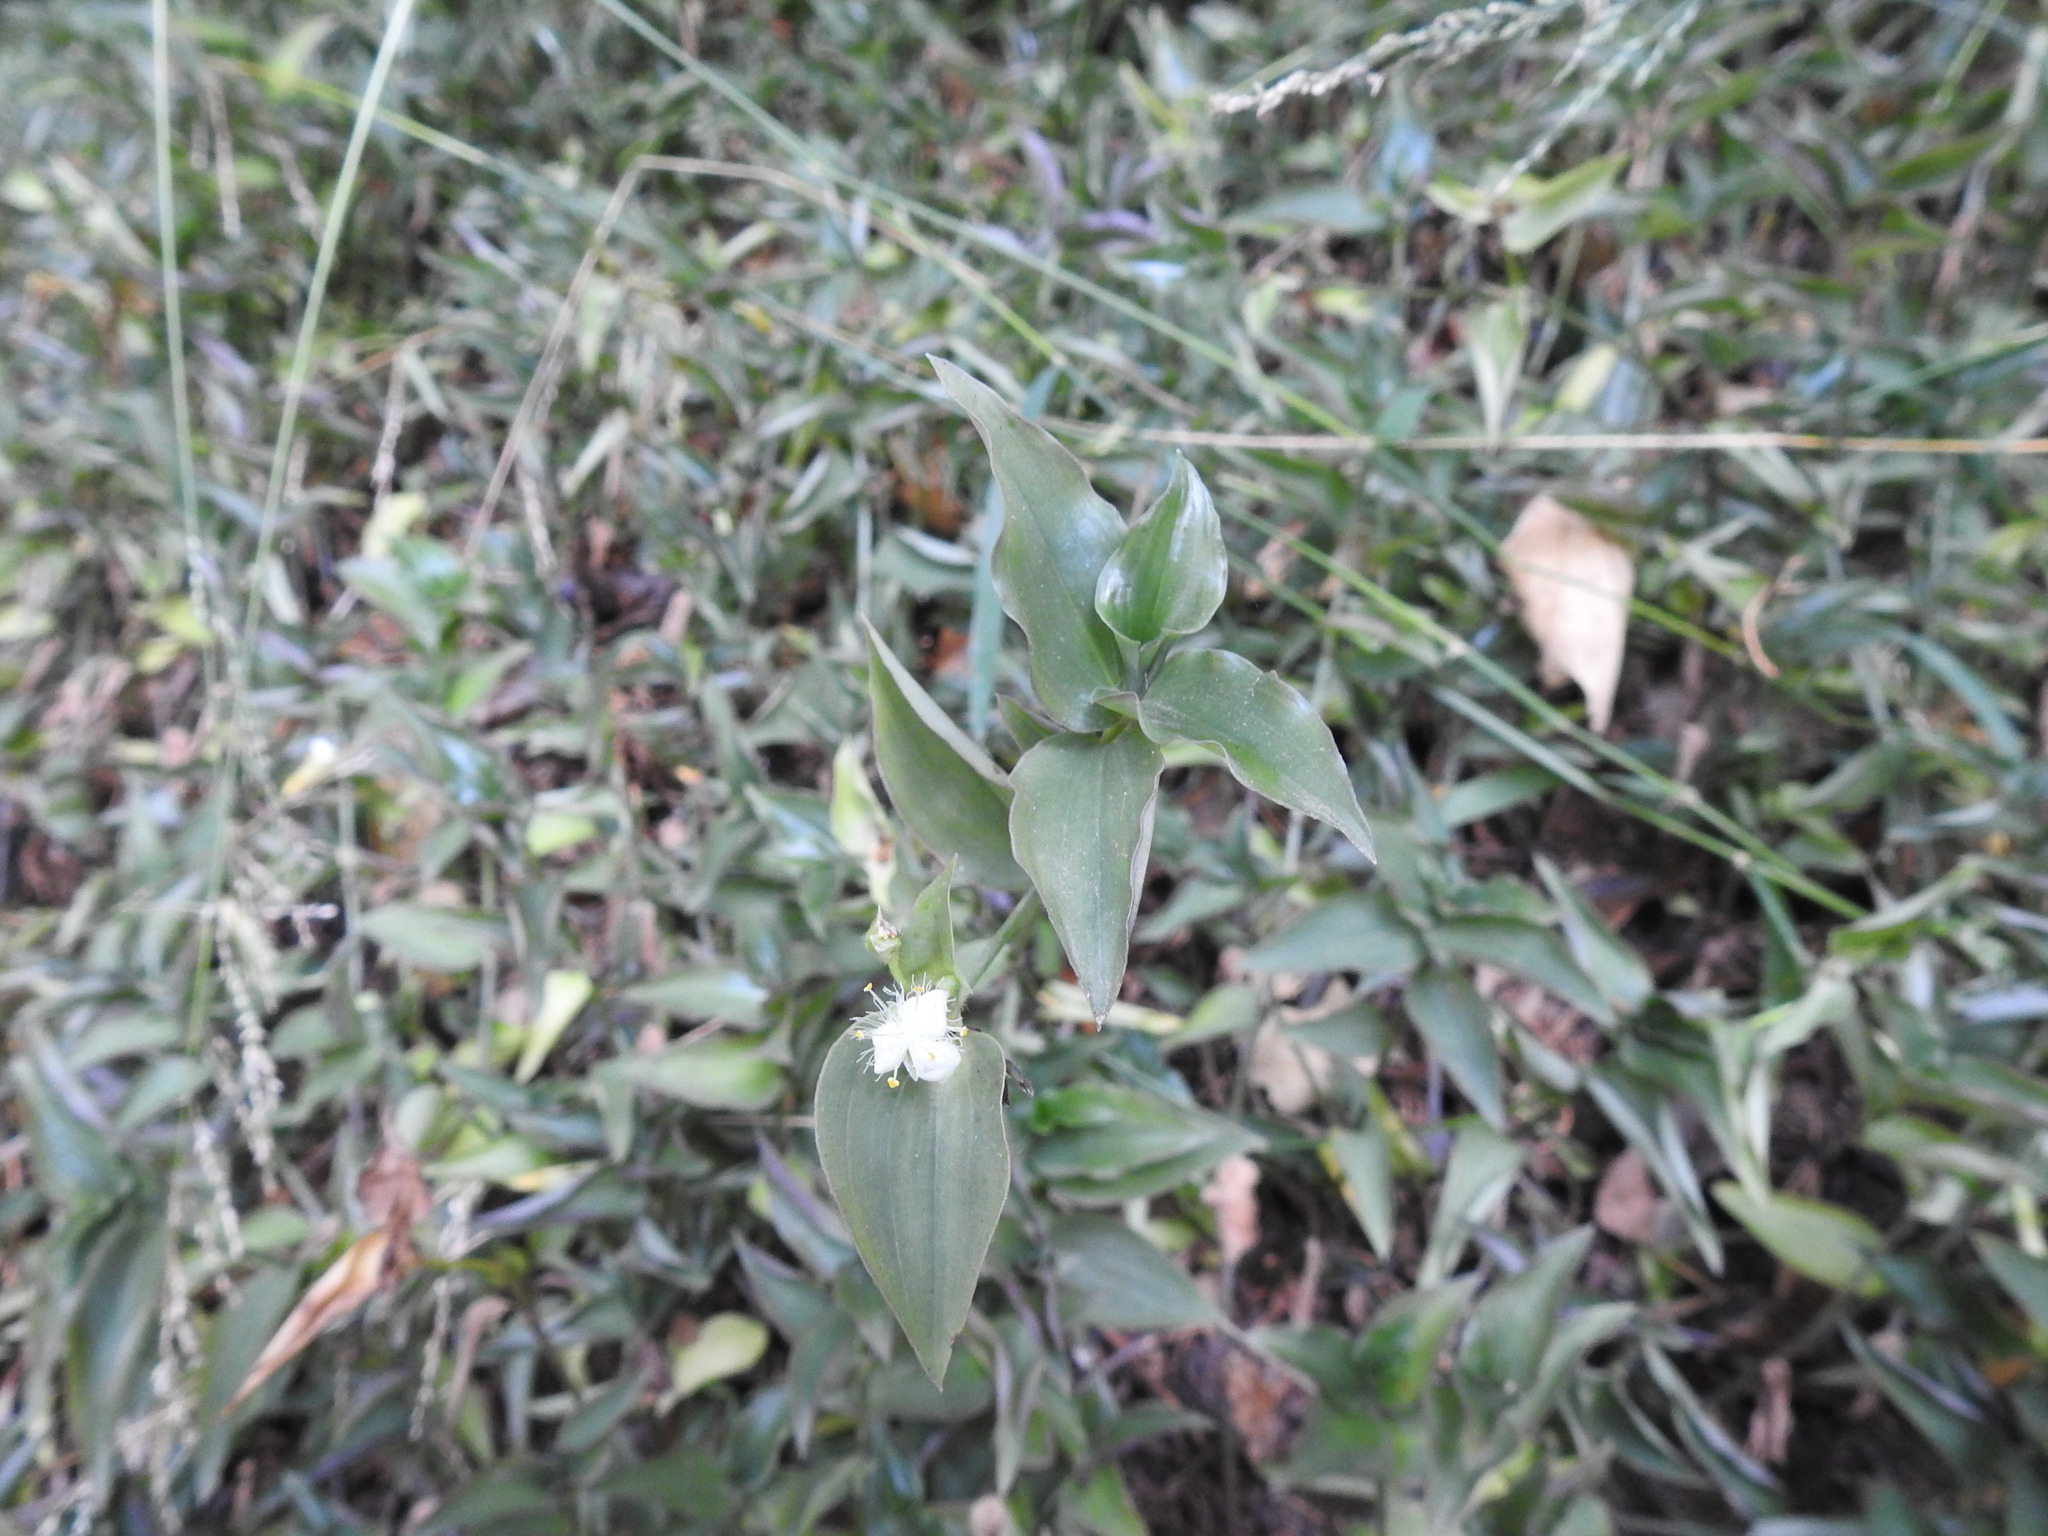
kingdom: Plantae
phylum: Tracheophyta
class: Liliopsida
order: Commelinales
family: Commelinaceae
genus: Tradescantia
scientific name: Tradescantia fluminensis
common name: Wandering-jew
